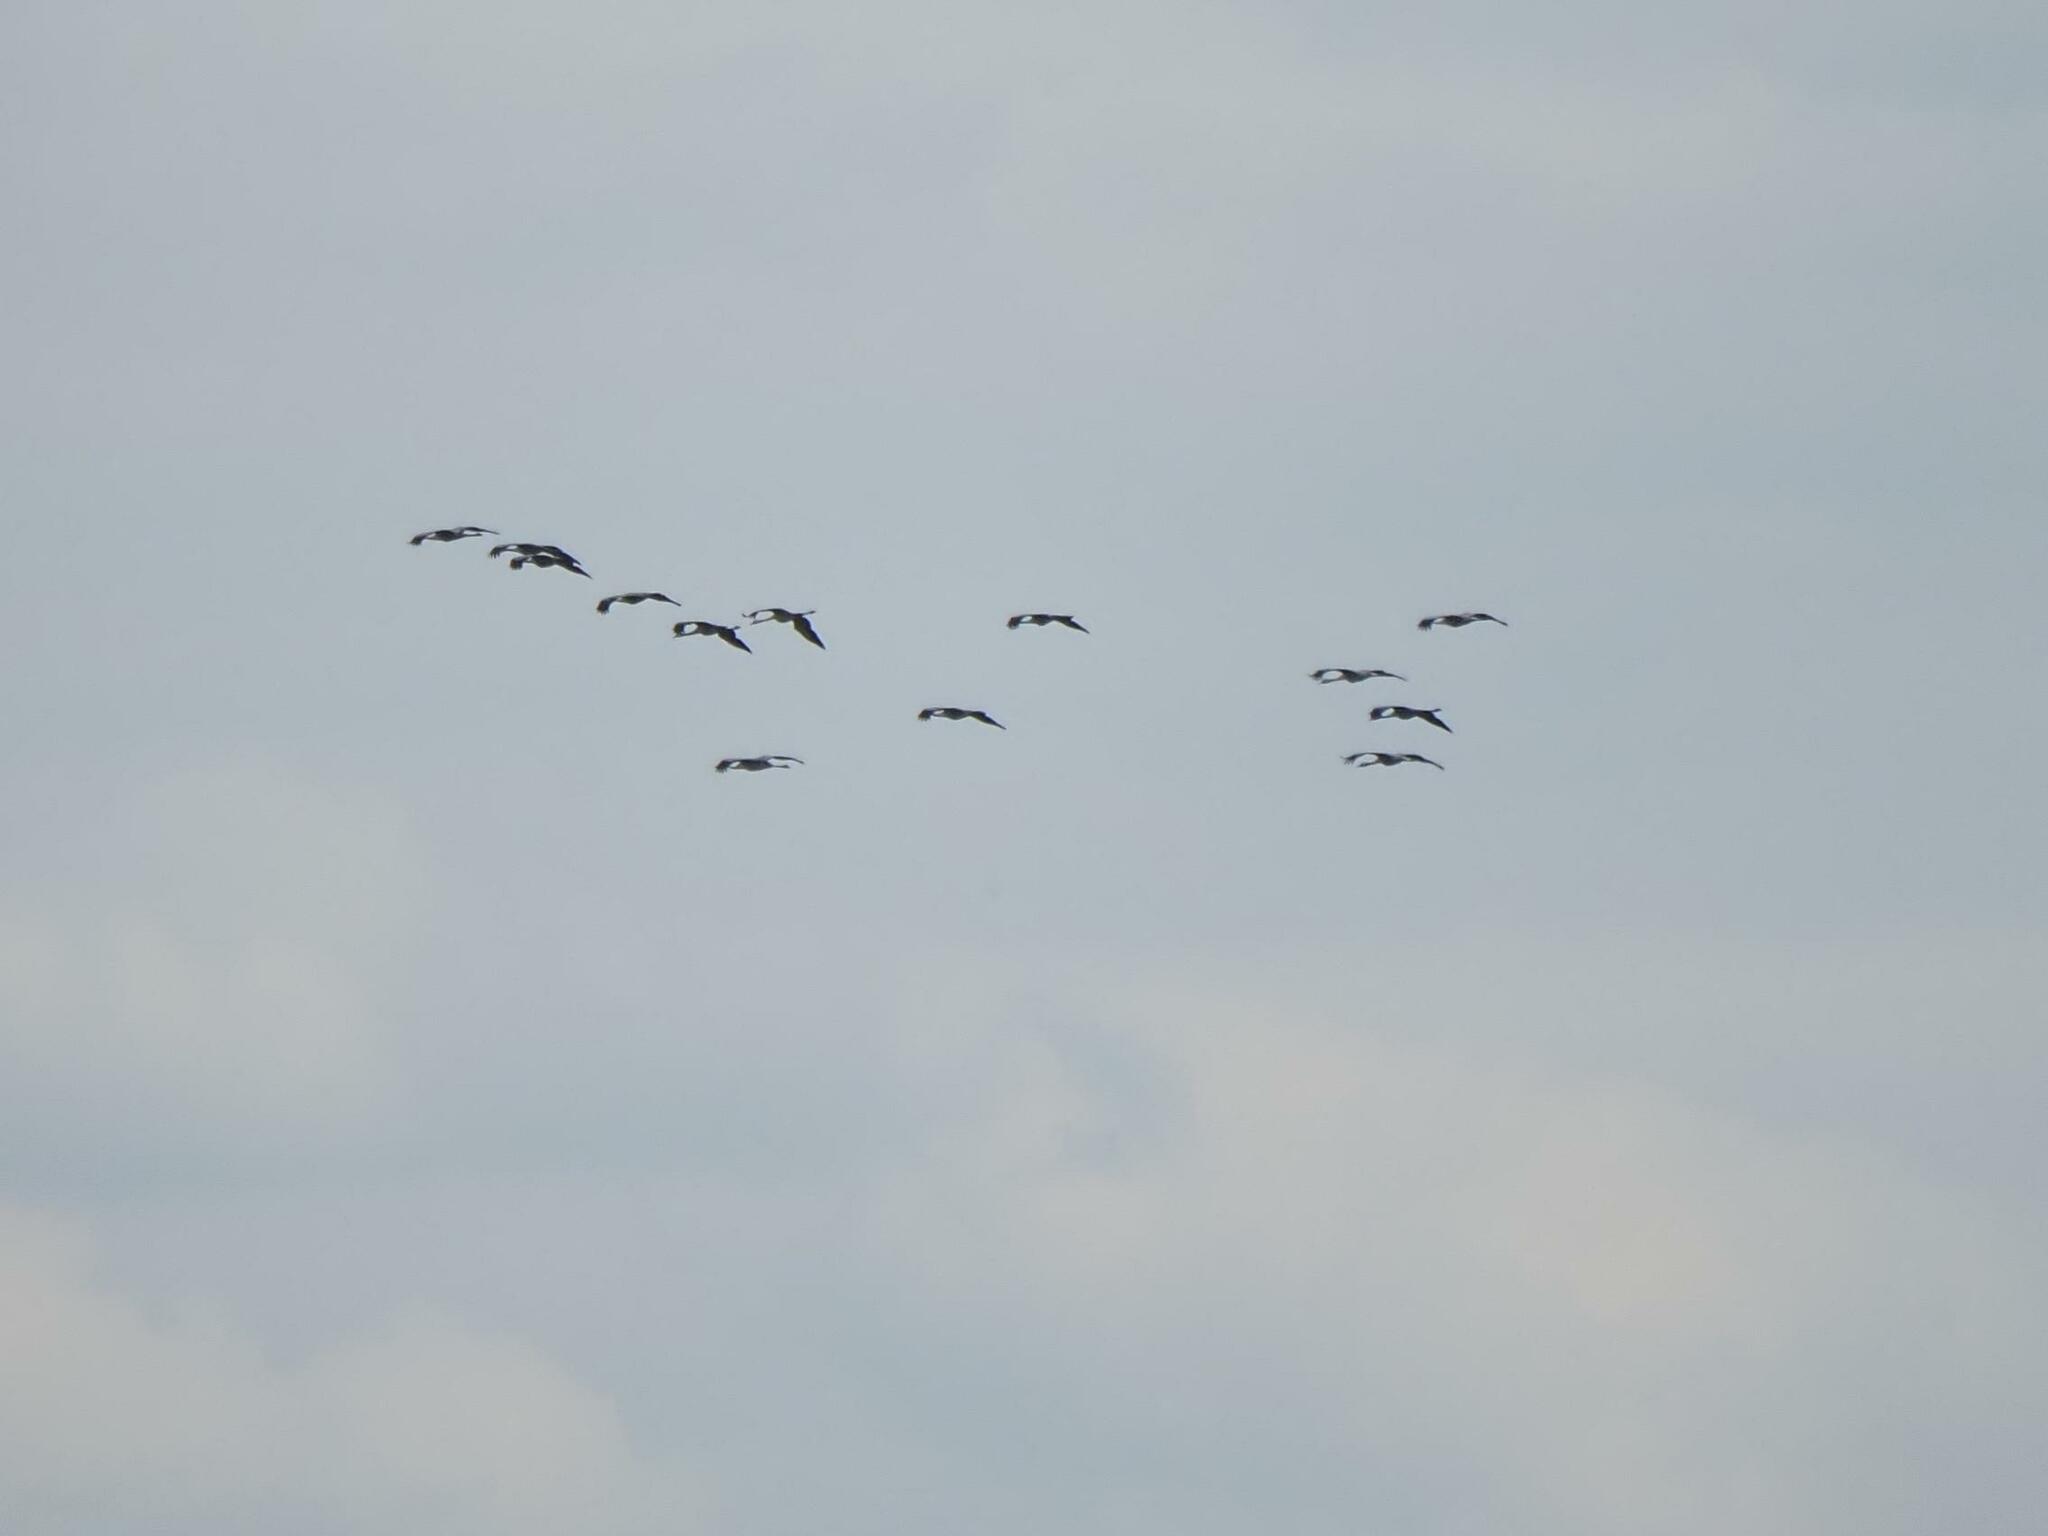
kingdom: Animalia
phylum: Chordata
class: Aves
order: Gruiformes
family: Gruidae
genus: Grus
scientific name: Grus grus
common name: Common crane
